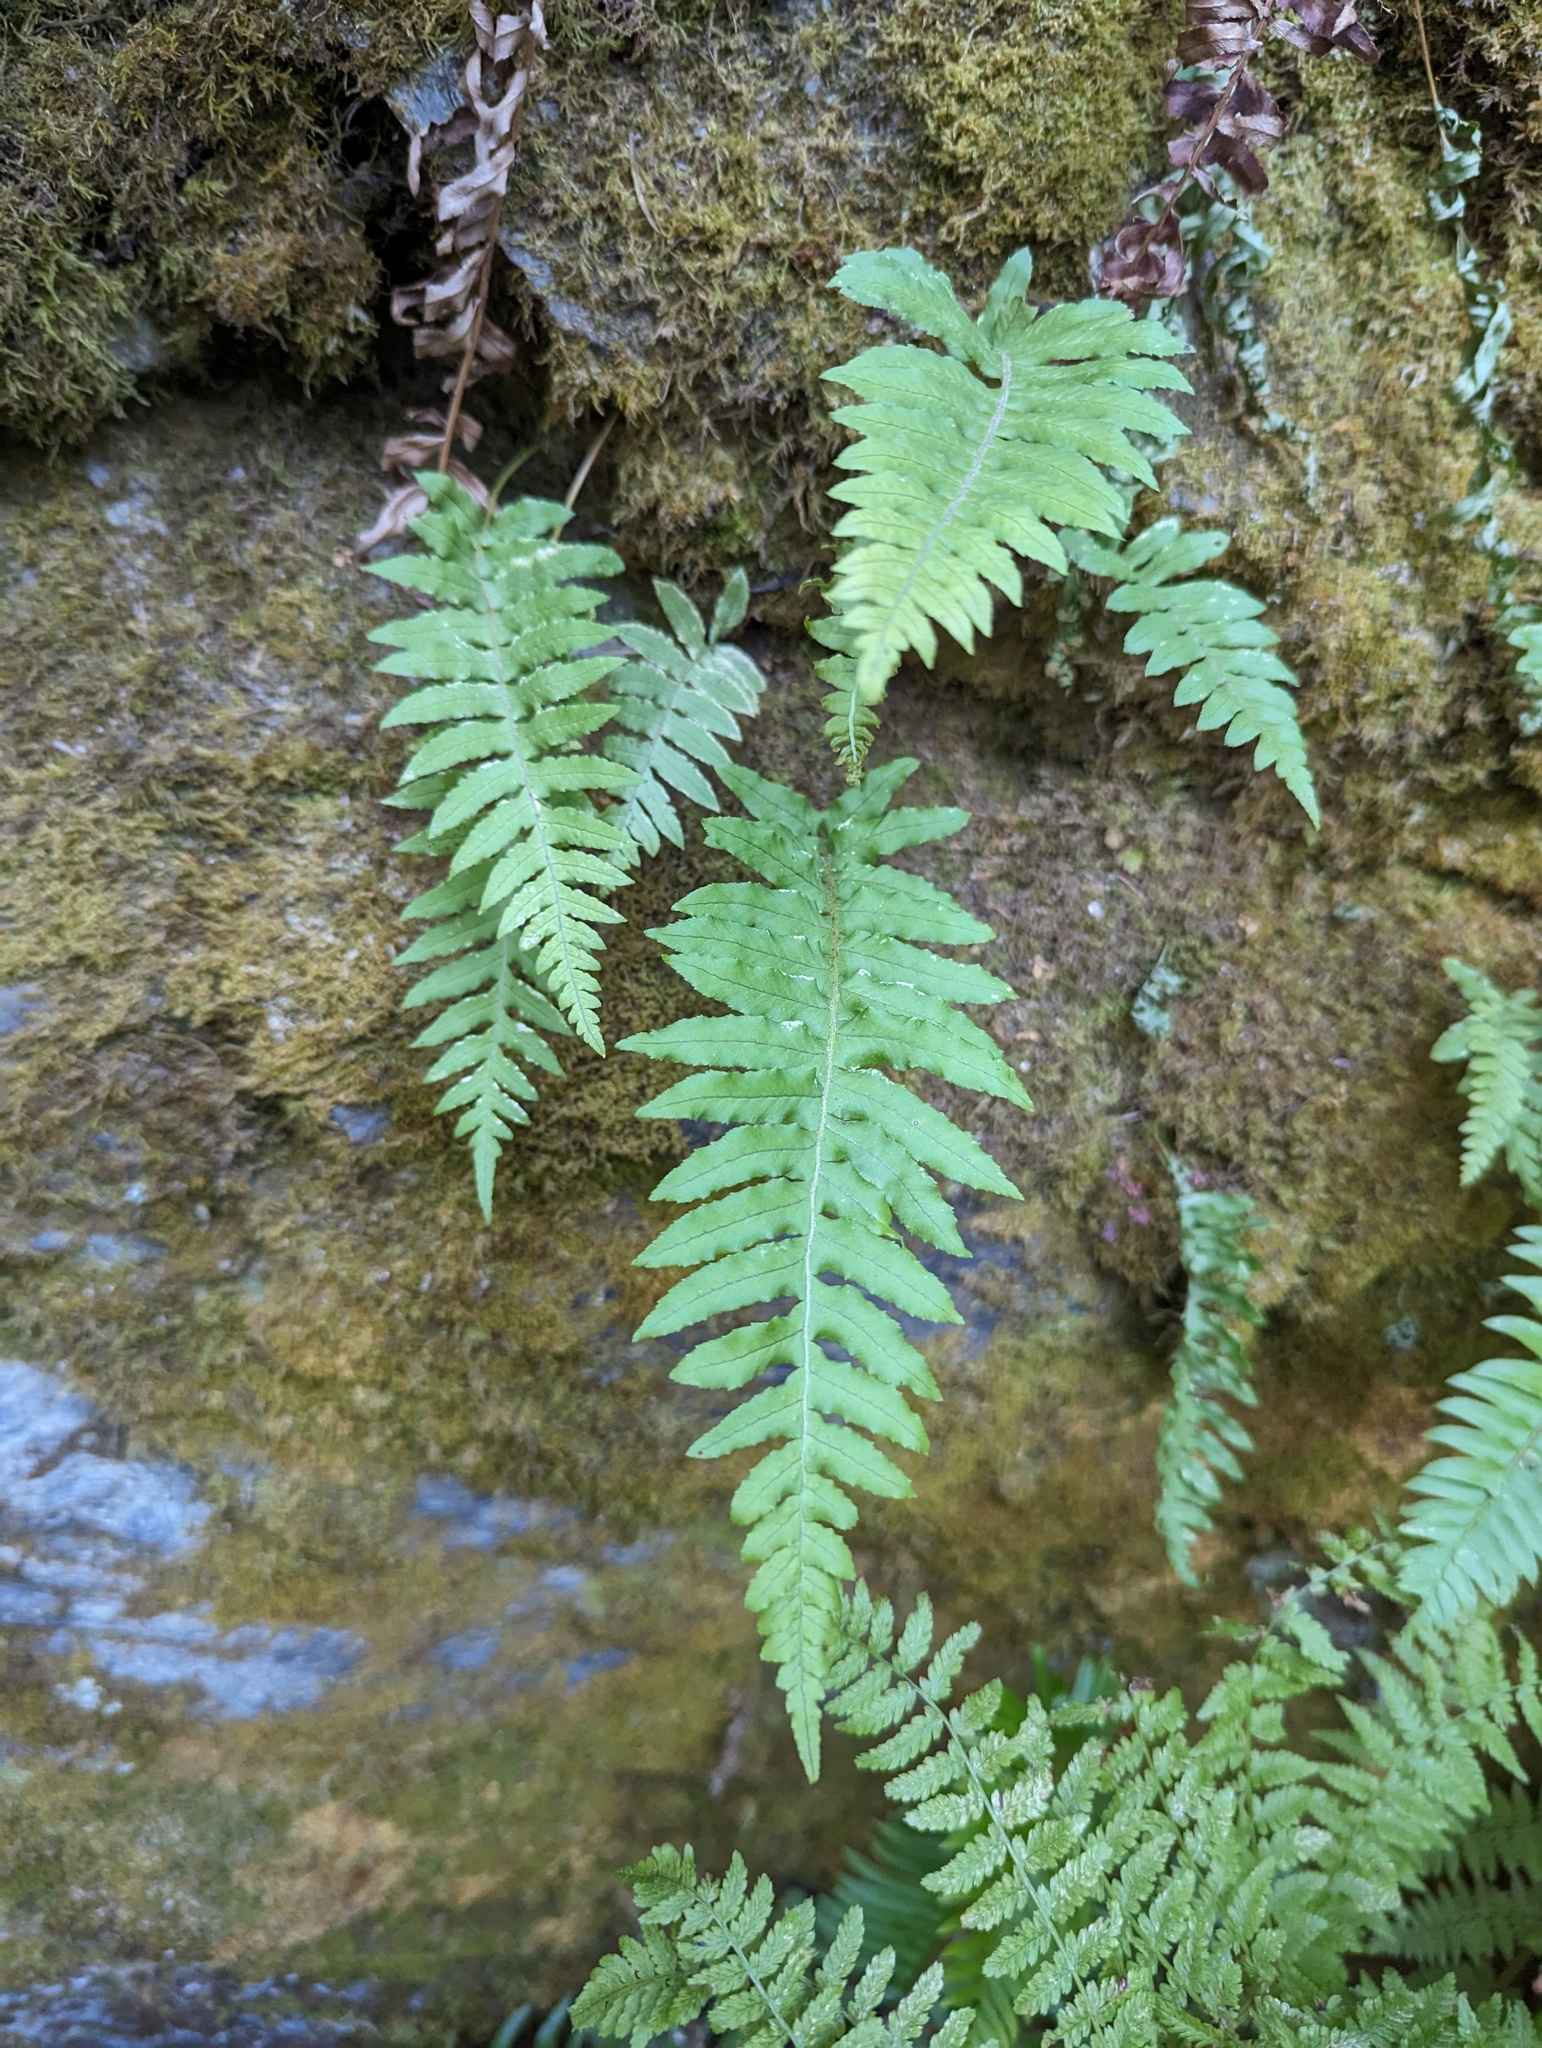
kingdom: Plantae
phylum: Tracheophyta
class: Polypodiopsida
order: Polypodiales
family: Polypodiaceae
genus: Polypodium
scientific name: Polypodium glycyrrhiza
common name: Licorice fern
